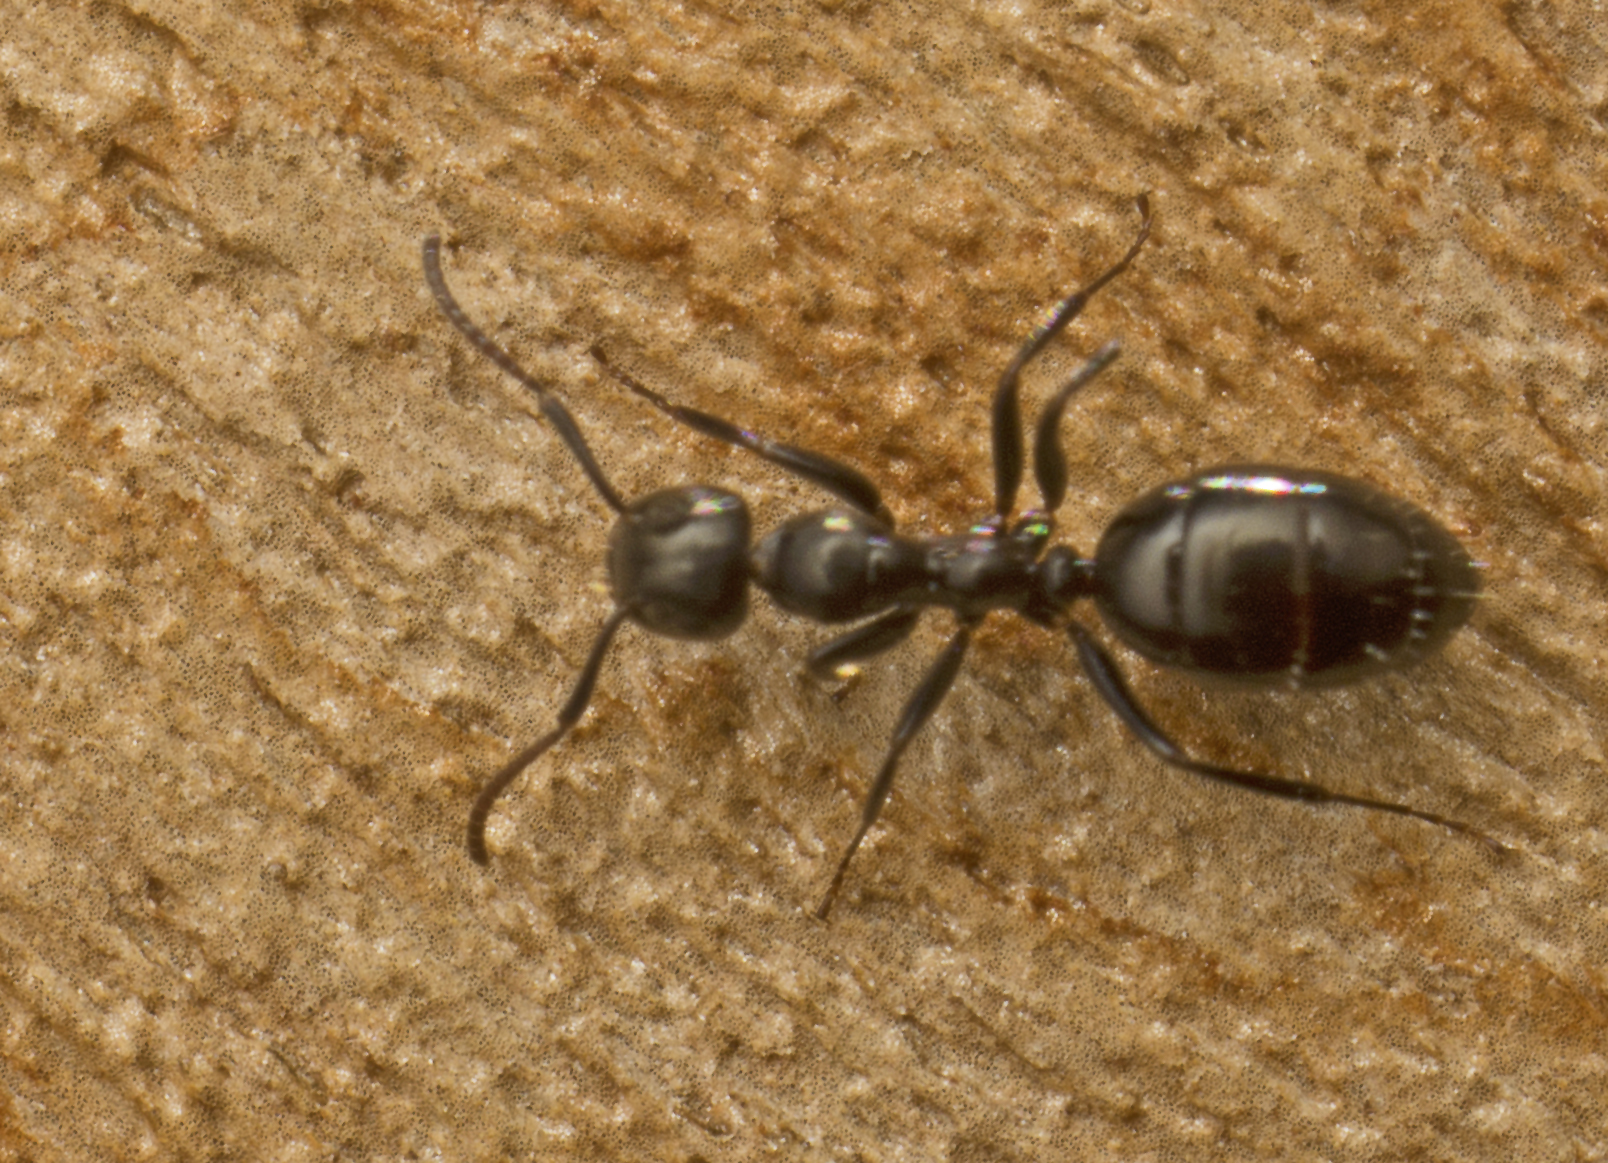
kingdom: Animalia
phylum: Arthropoda
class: Insecta
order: Hymenoptera
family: Formicidae
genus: Colobopsis
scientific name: Colobopsis gasseri
